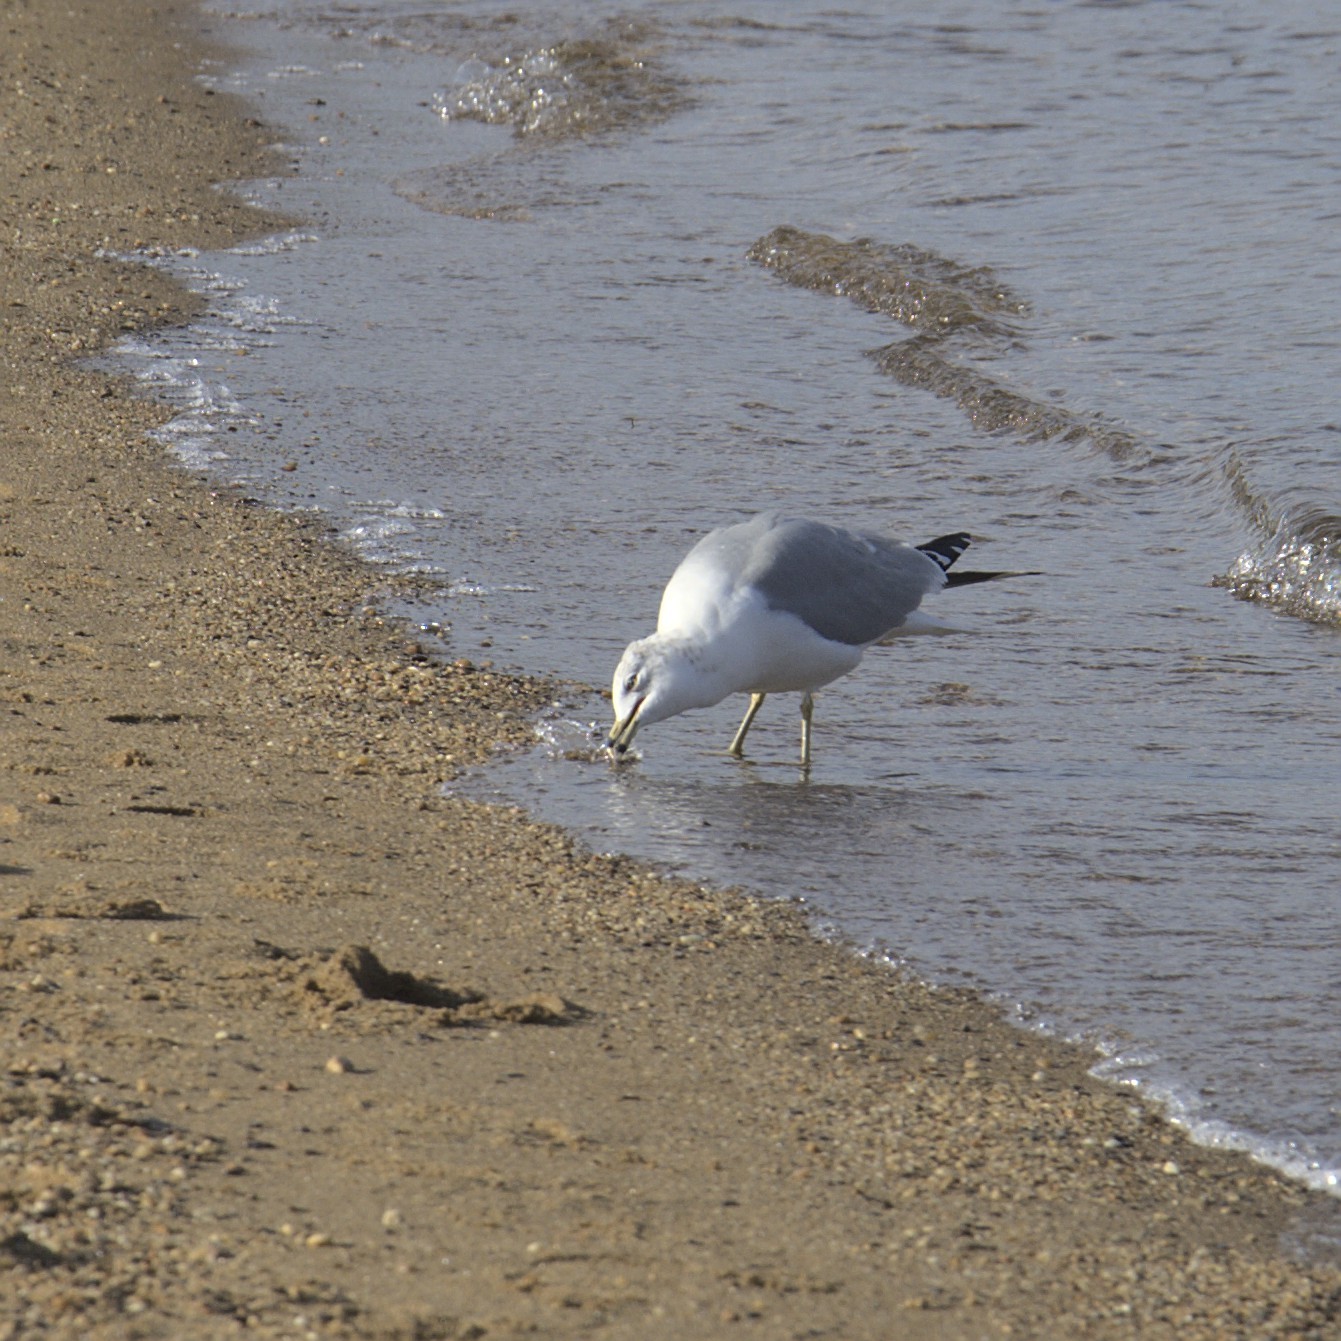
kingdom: Animalia
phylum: Chordata
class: Aves
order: Charadriiformes
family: Laridae
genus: Larus
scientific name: Larus delawarensis
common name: Ring-billed gull
